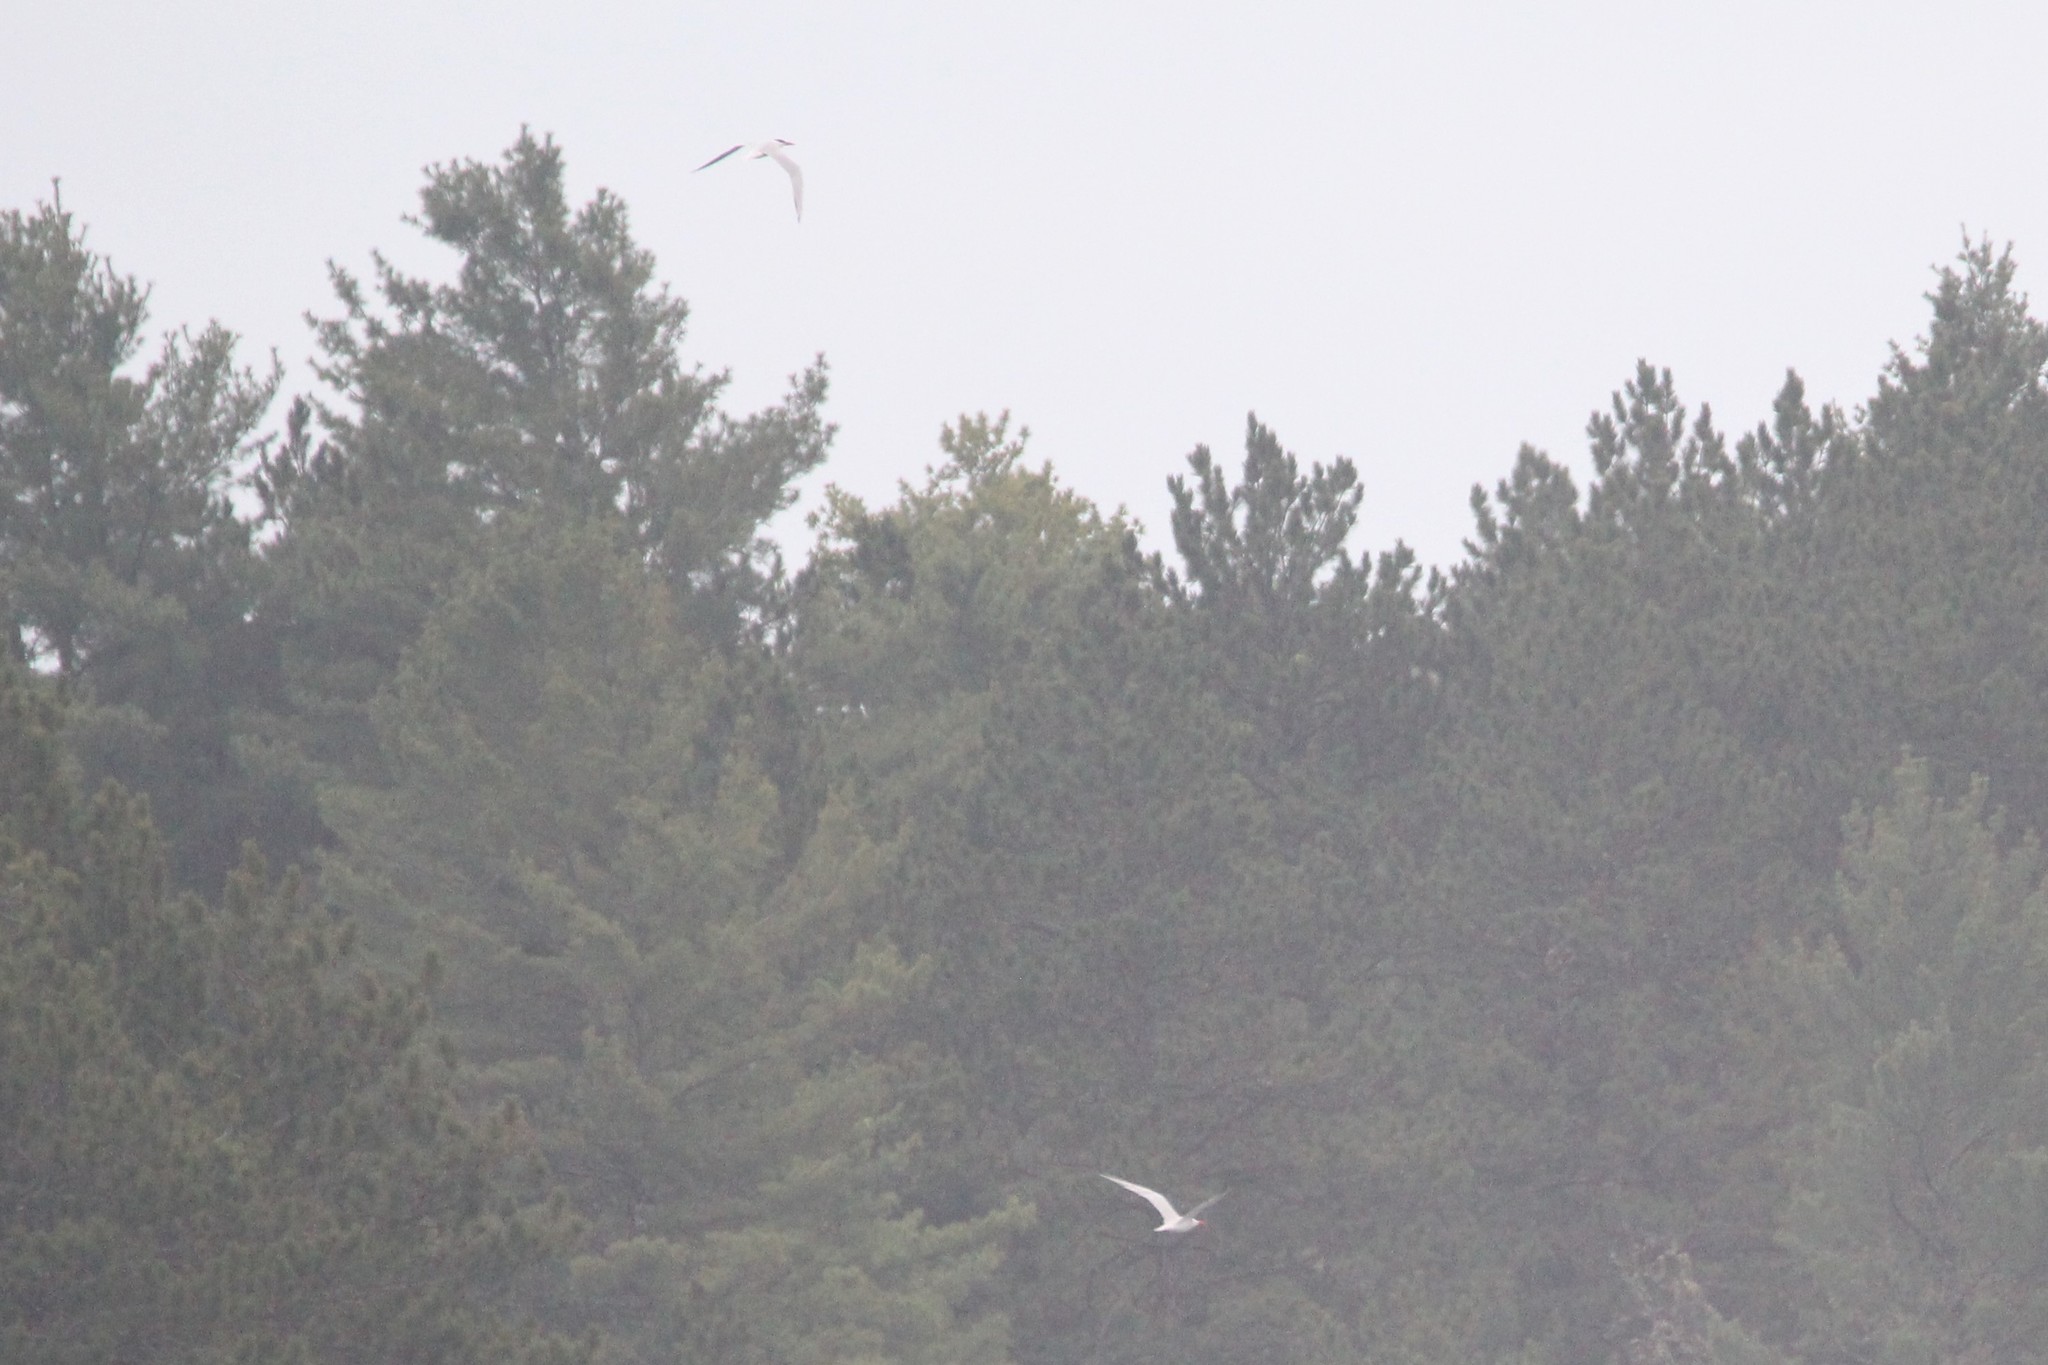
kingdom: Animalia
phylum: Chordata
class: Aves
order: Charadriiformes
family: Laridae
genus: Hydroprogne
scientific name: Hydroprogne caspia
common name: Caspian tern
